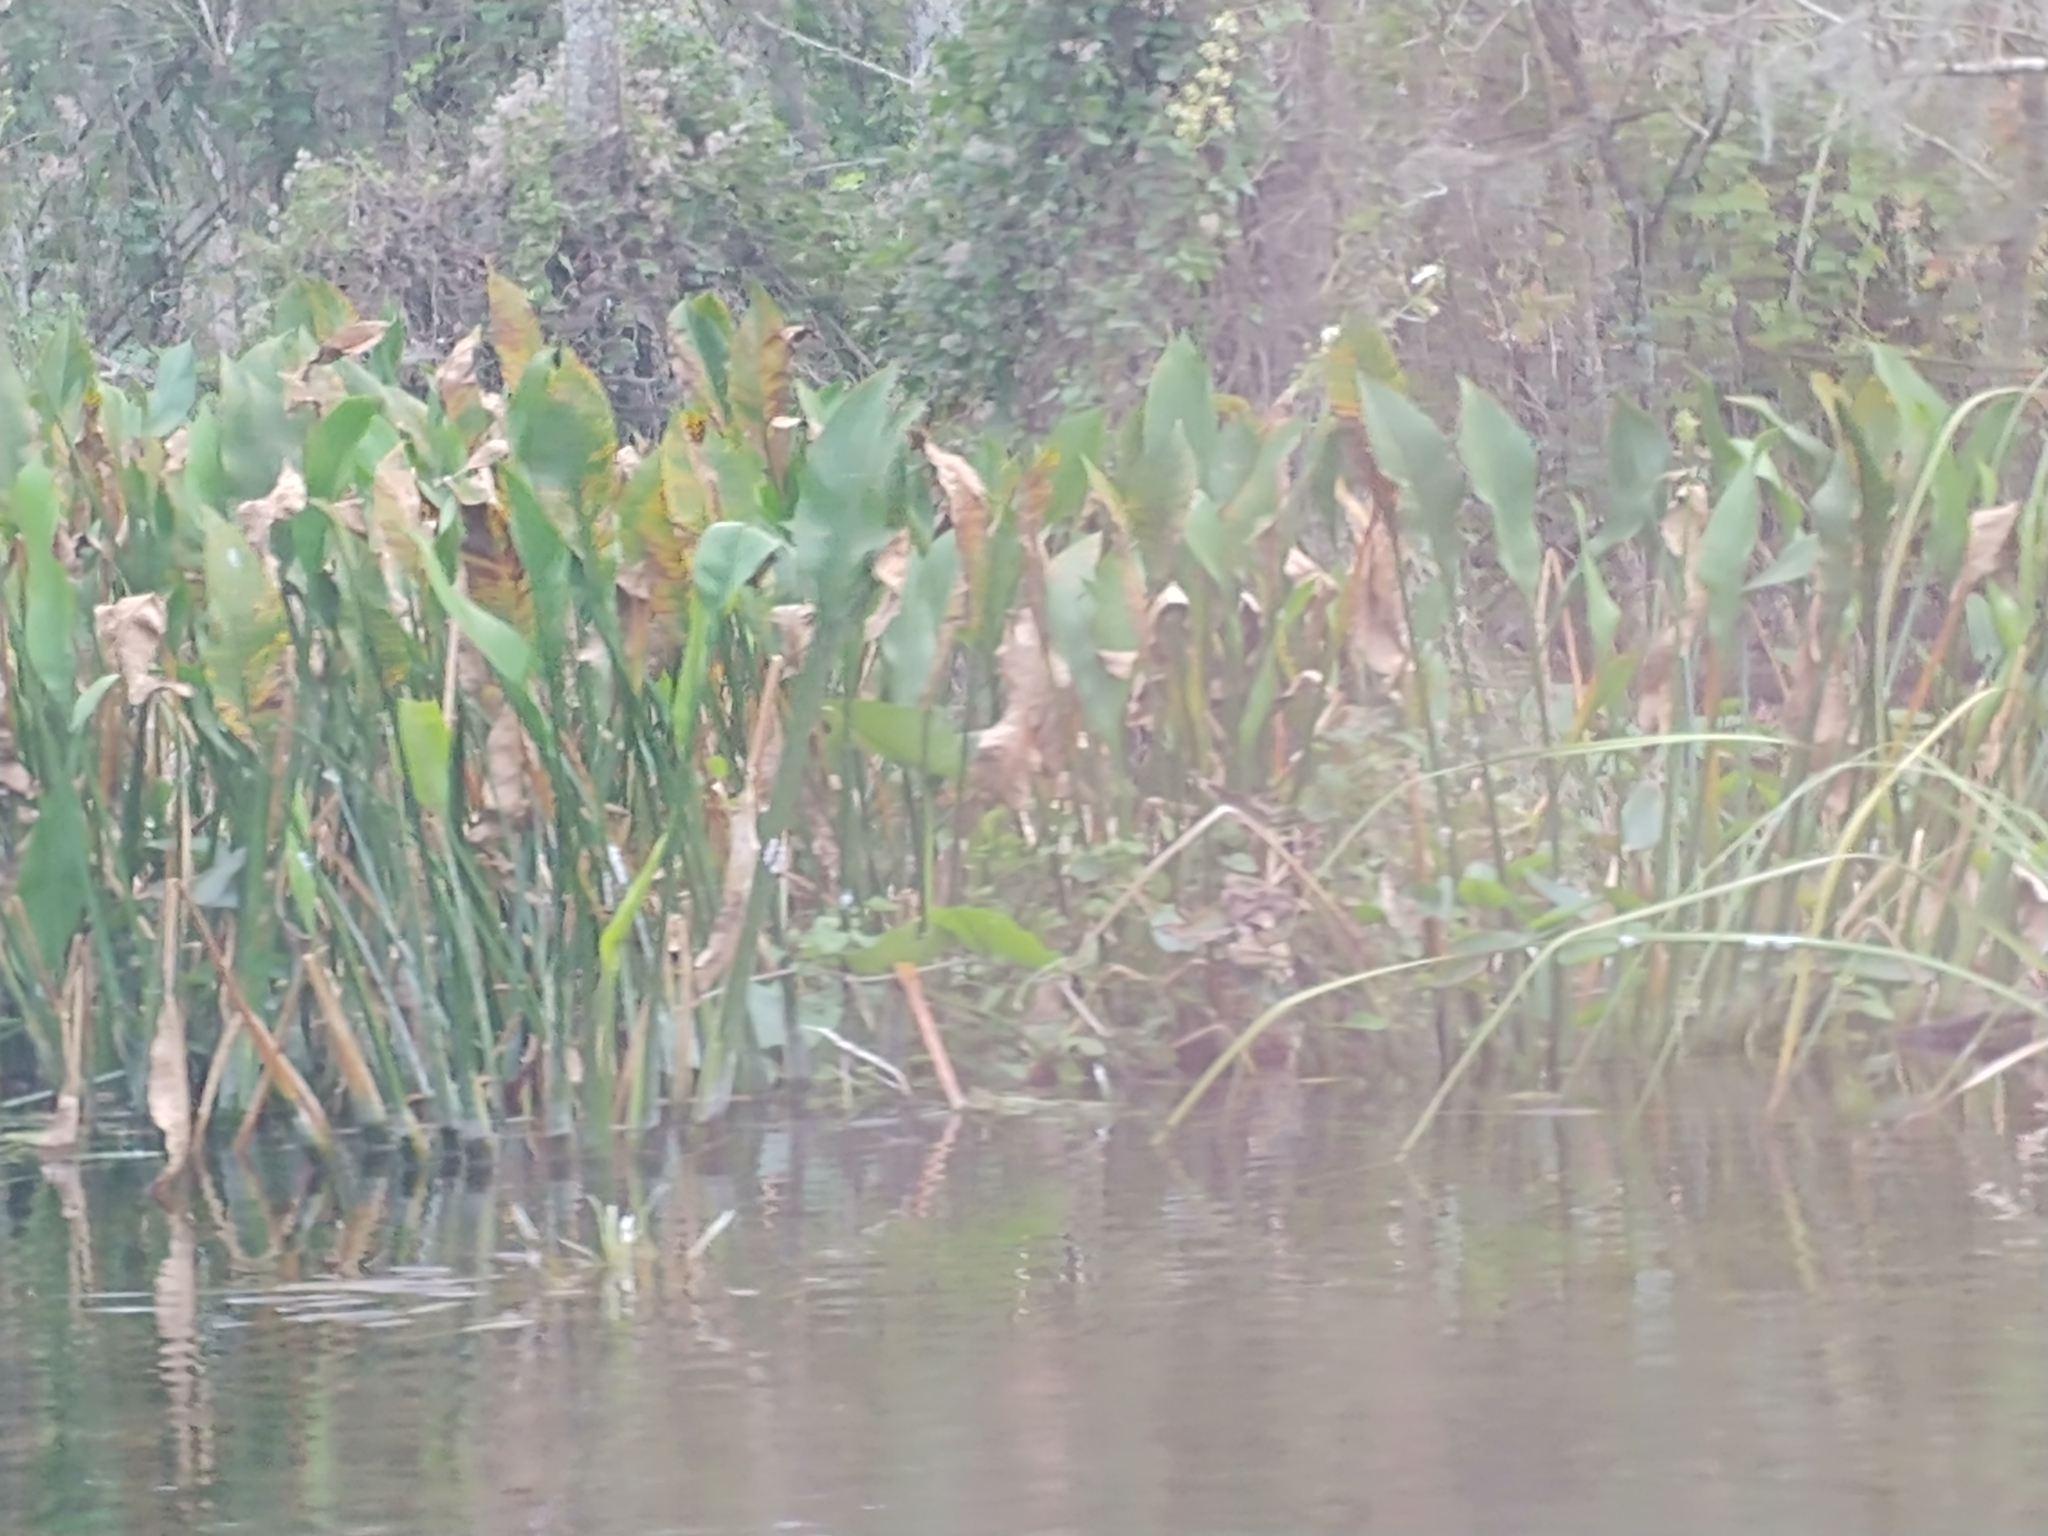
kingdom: Plantae
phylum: Tracheophyta
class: Liliopsida
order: Alismatales
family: Alismataceae
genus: Sagittaria
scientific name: Sagittaria lancifolia
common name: Lance-leaf arrowhead
